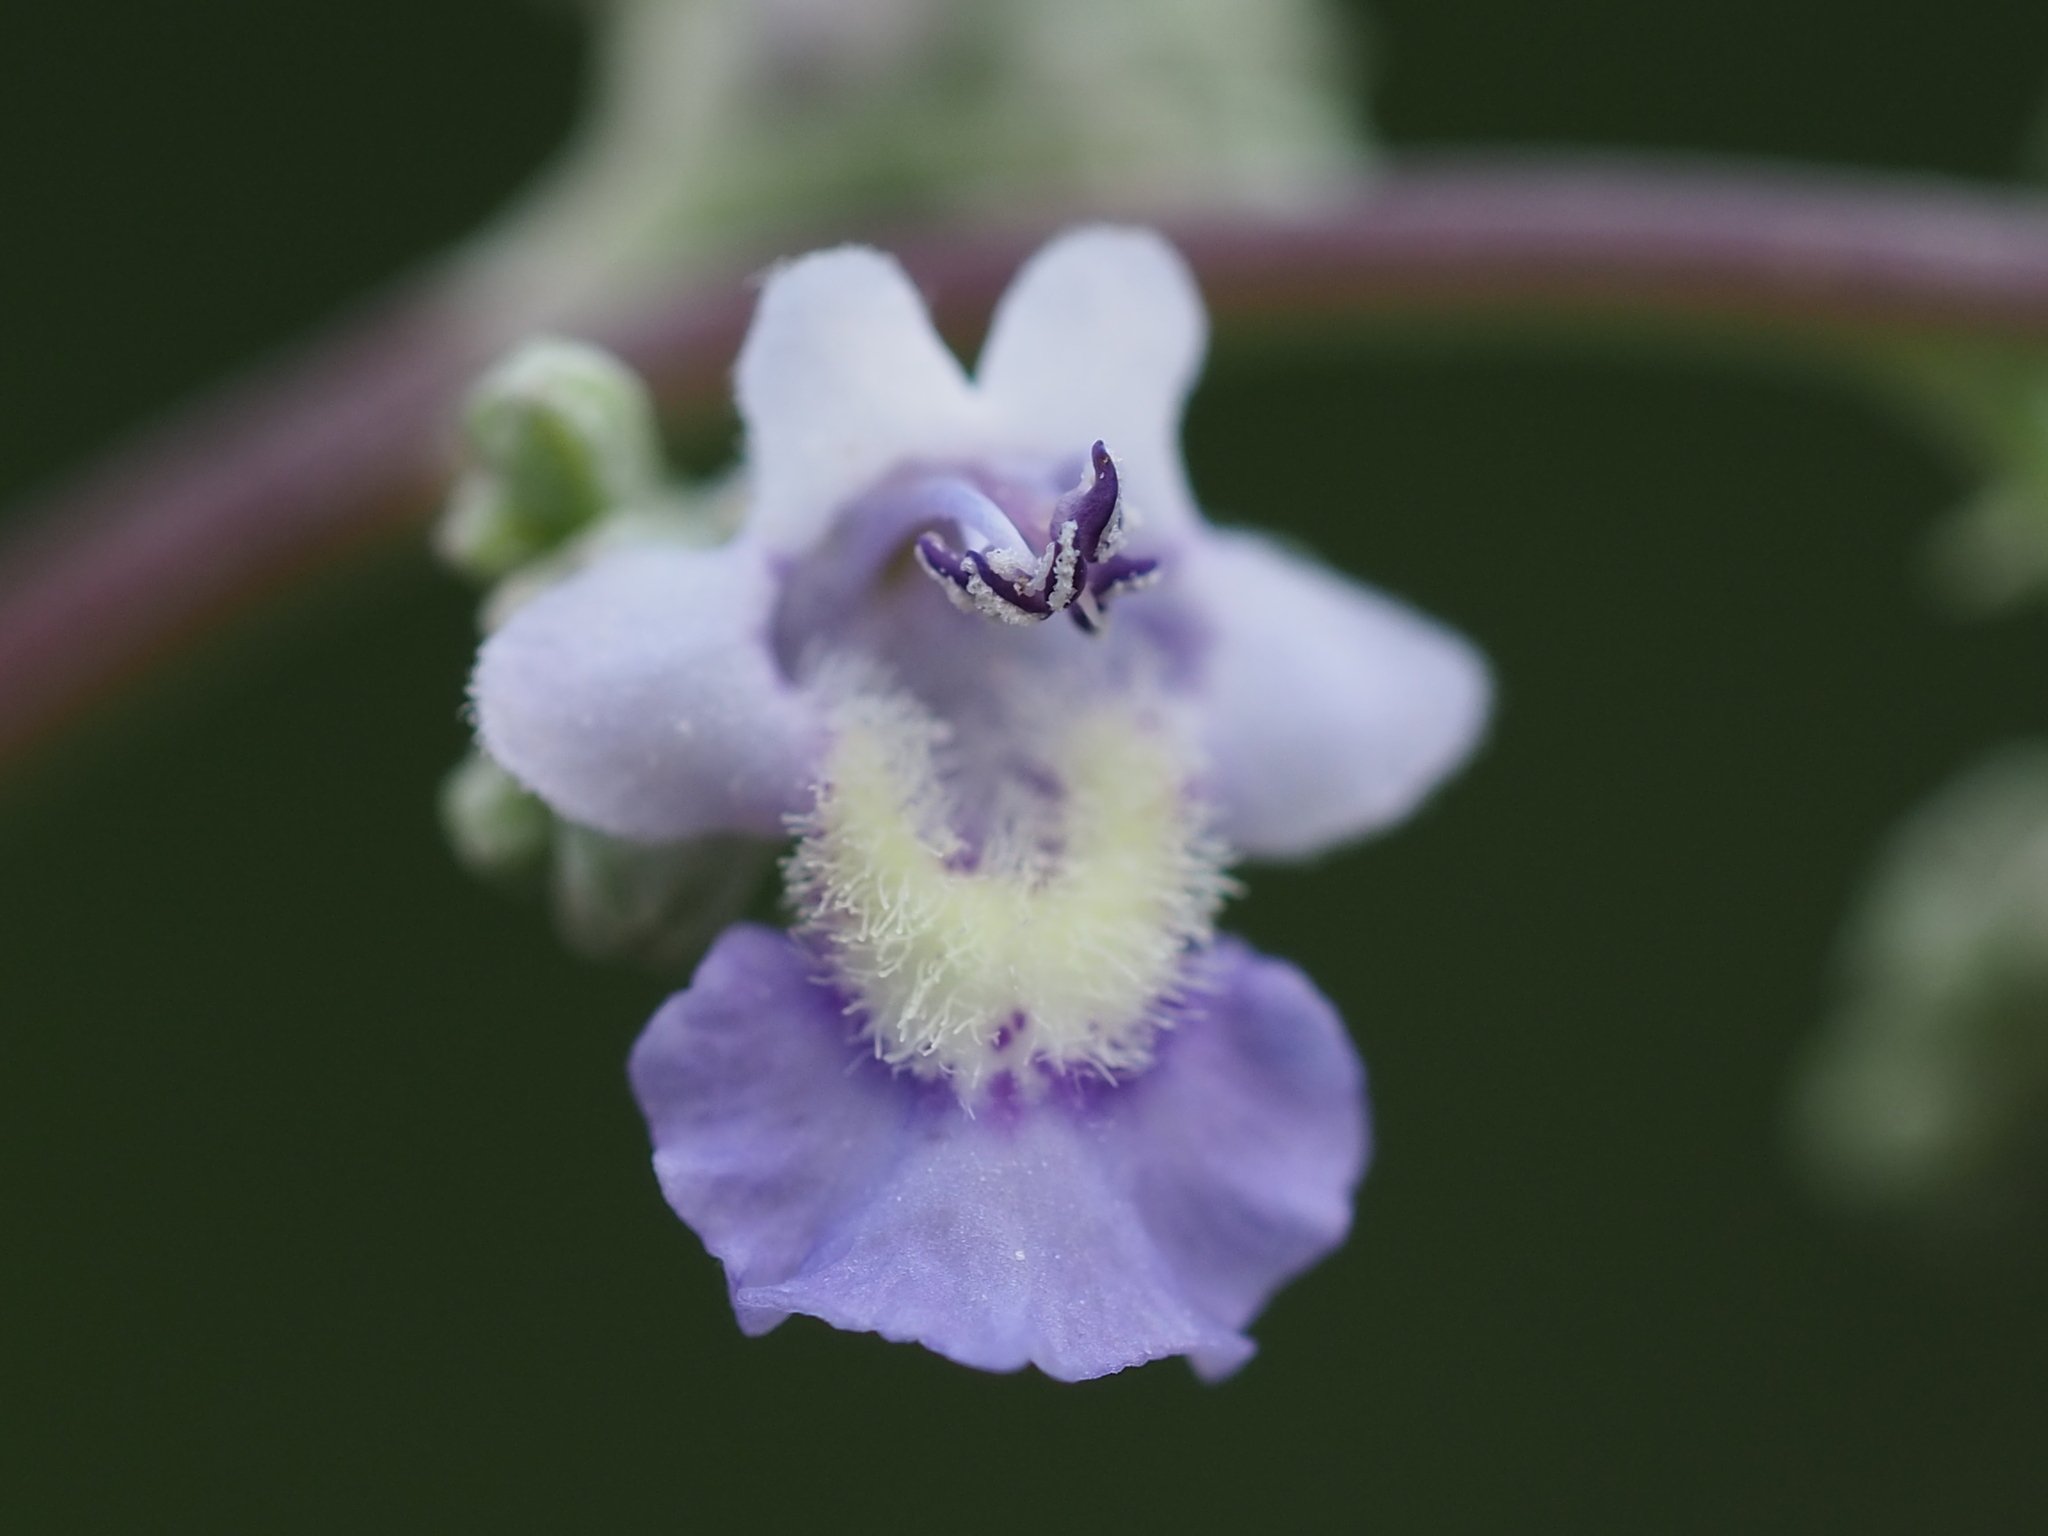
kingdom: Plantae
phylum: Tracheophyta
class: Magnoliopsida
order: Lamiales
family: Lamiaceae
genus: Vitex
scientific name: Vitex negundo
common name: Chinese chastetree
